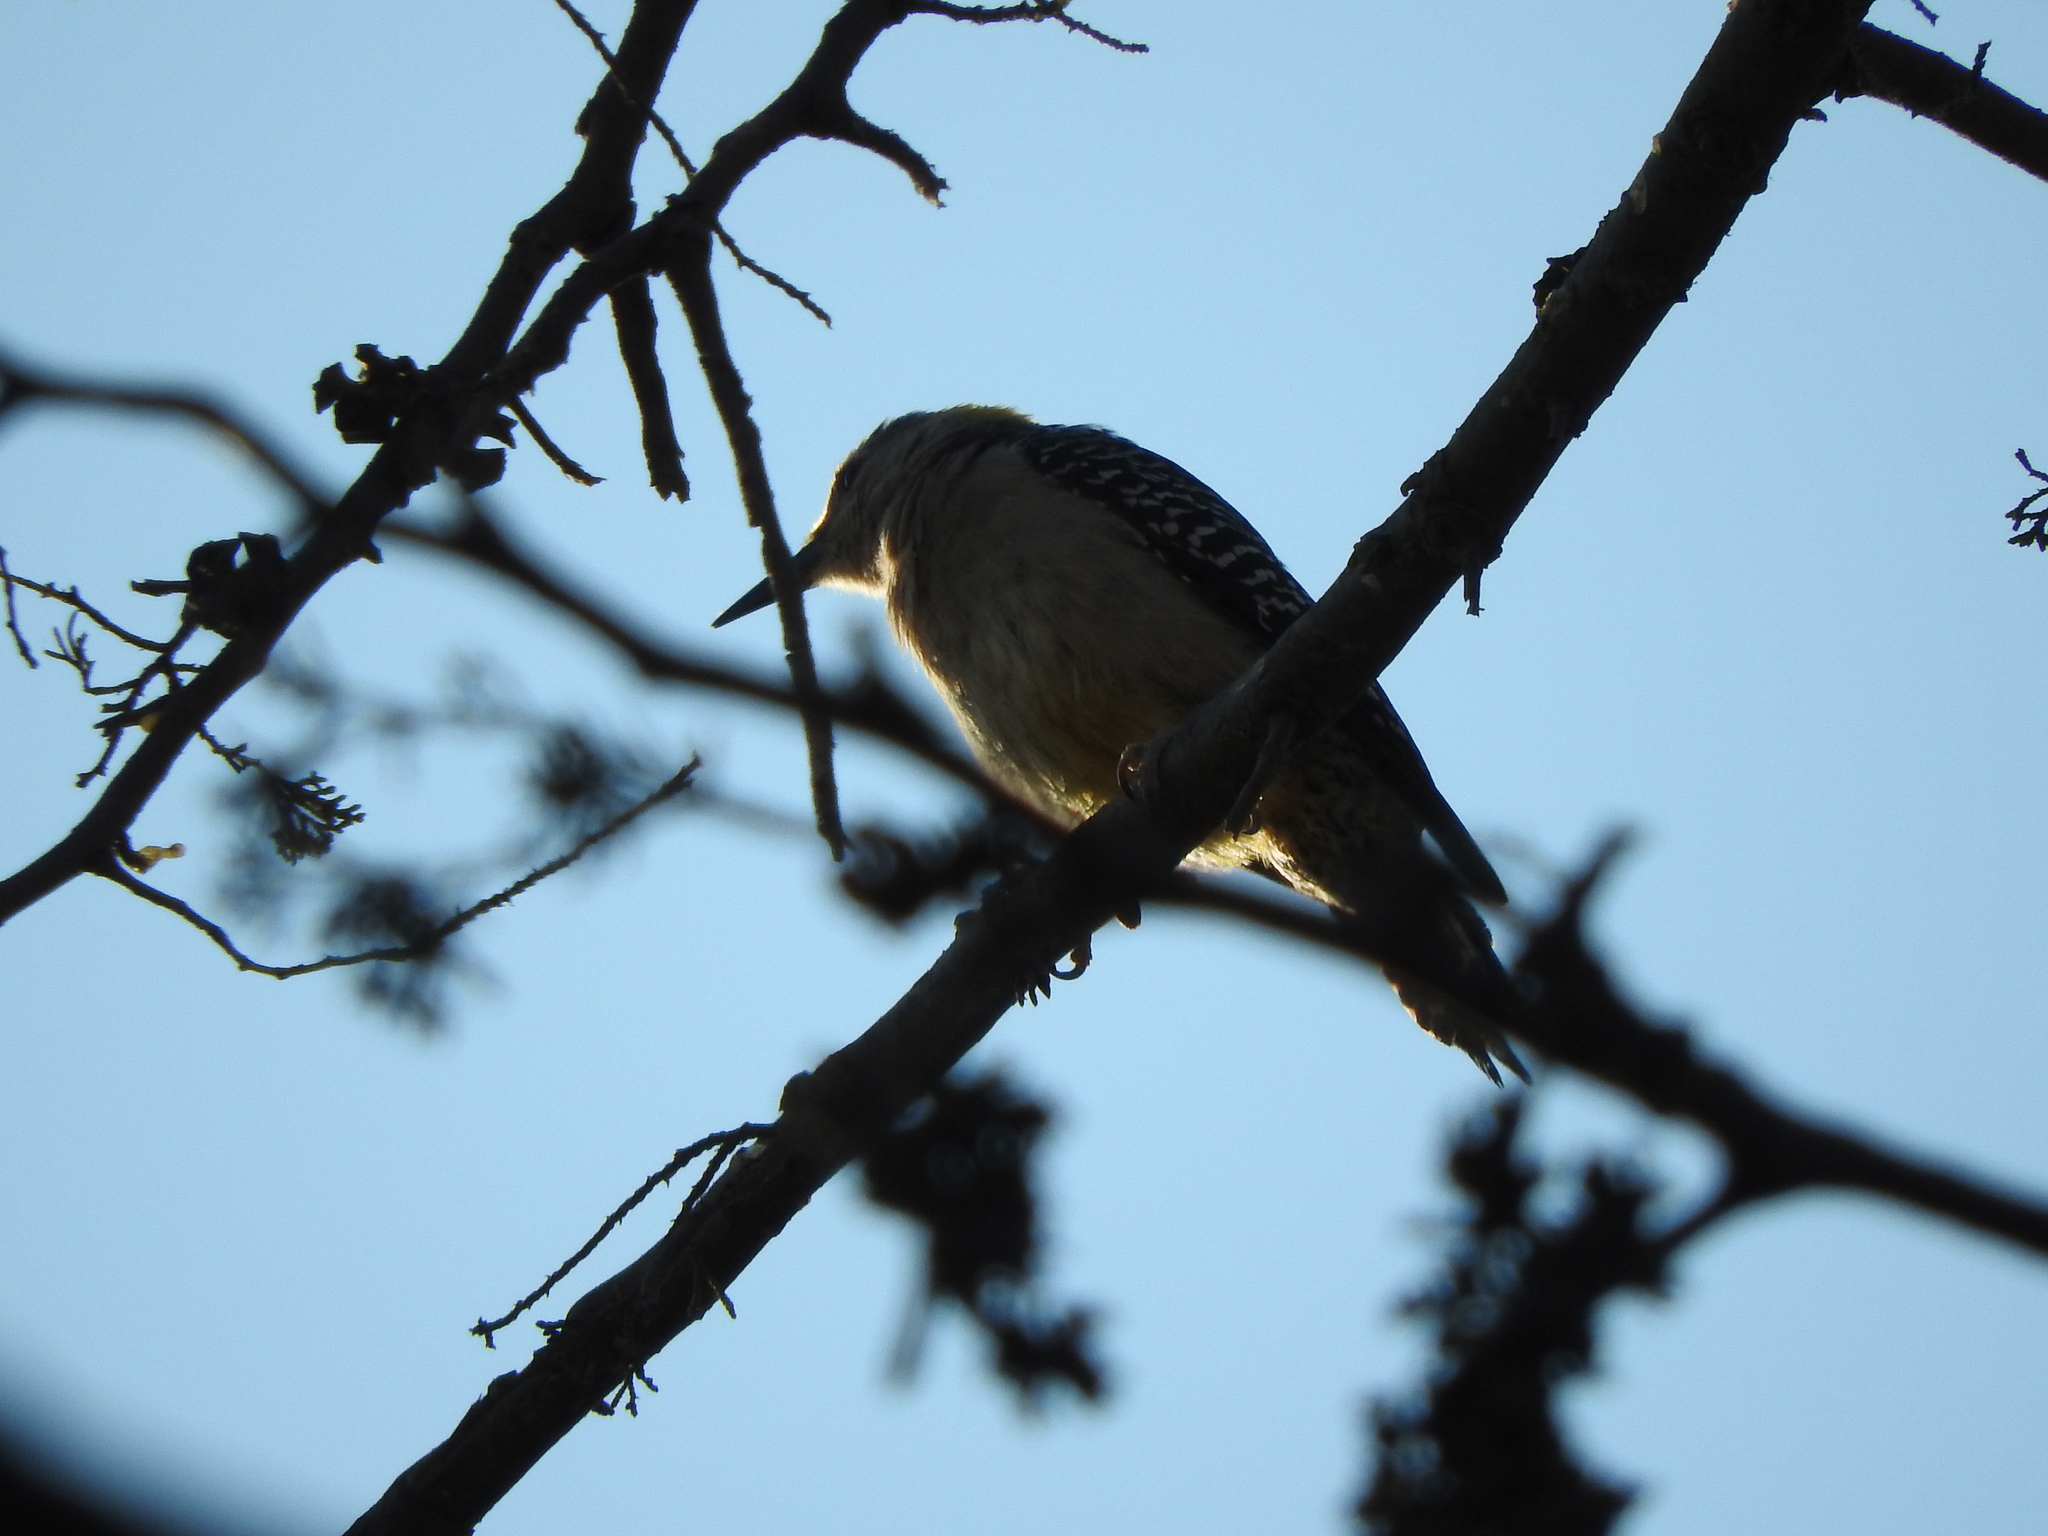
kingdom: Animalia
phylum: Chordata
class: Aves
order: Piciformes
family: Picidae
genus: Melanerpes
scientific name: Melanerpes aurifrons
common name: Golden-fronted woodpecker
